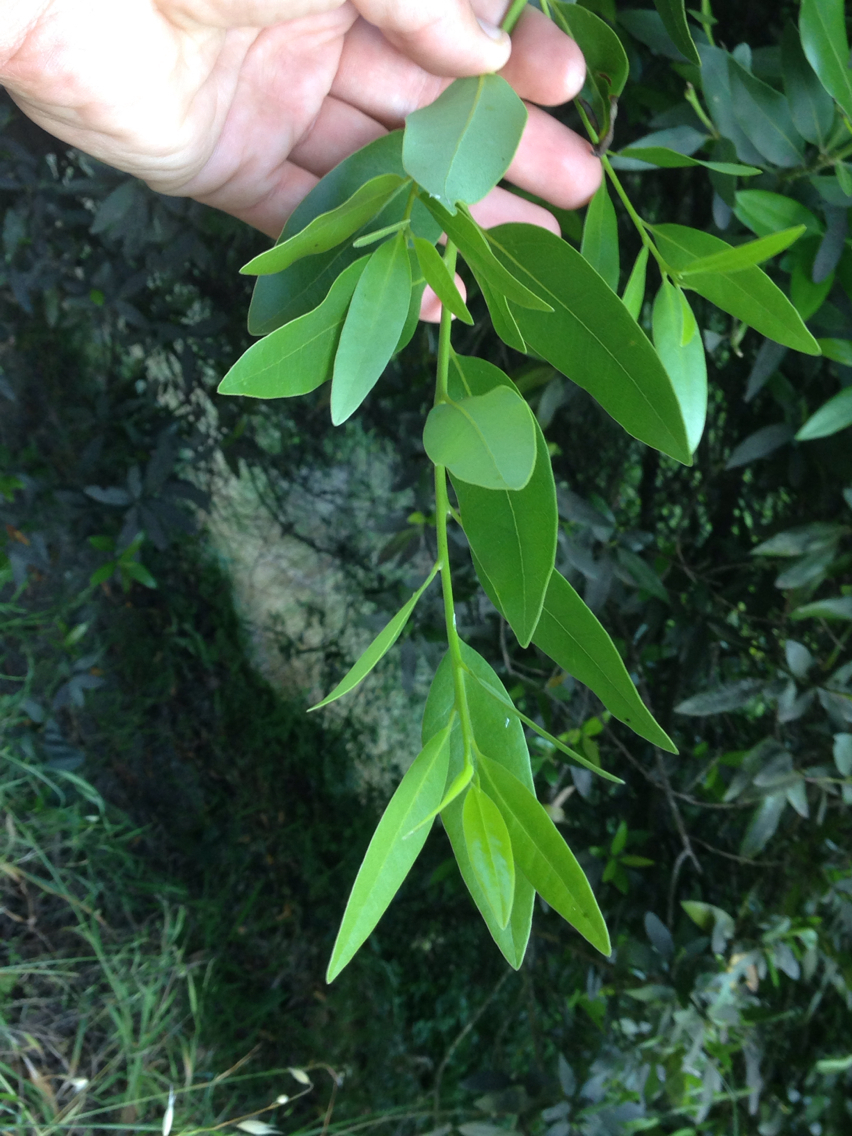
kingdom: Plantae
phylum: Tracheophyta
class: Magnoliopsida
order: Laurales
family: Lauraceae
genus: Umbellularia
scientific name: Umbellularia californica
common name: California bay
